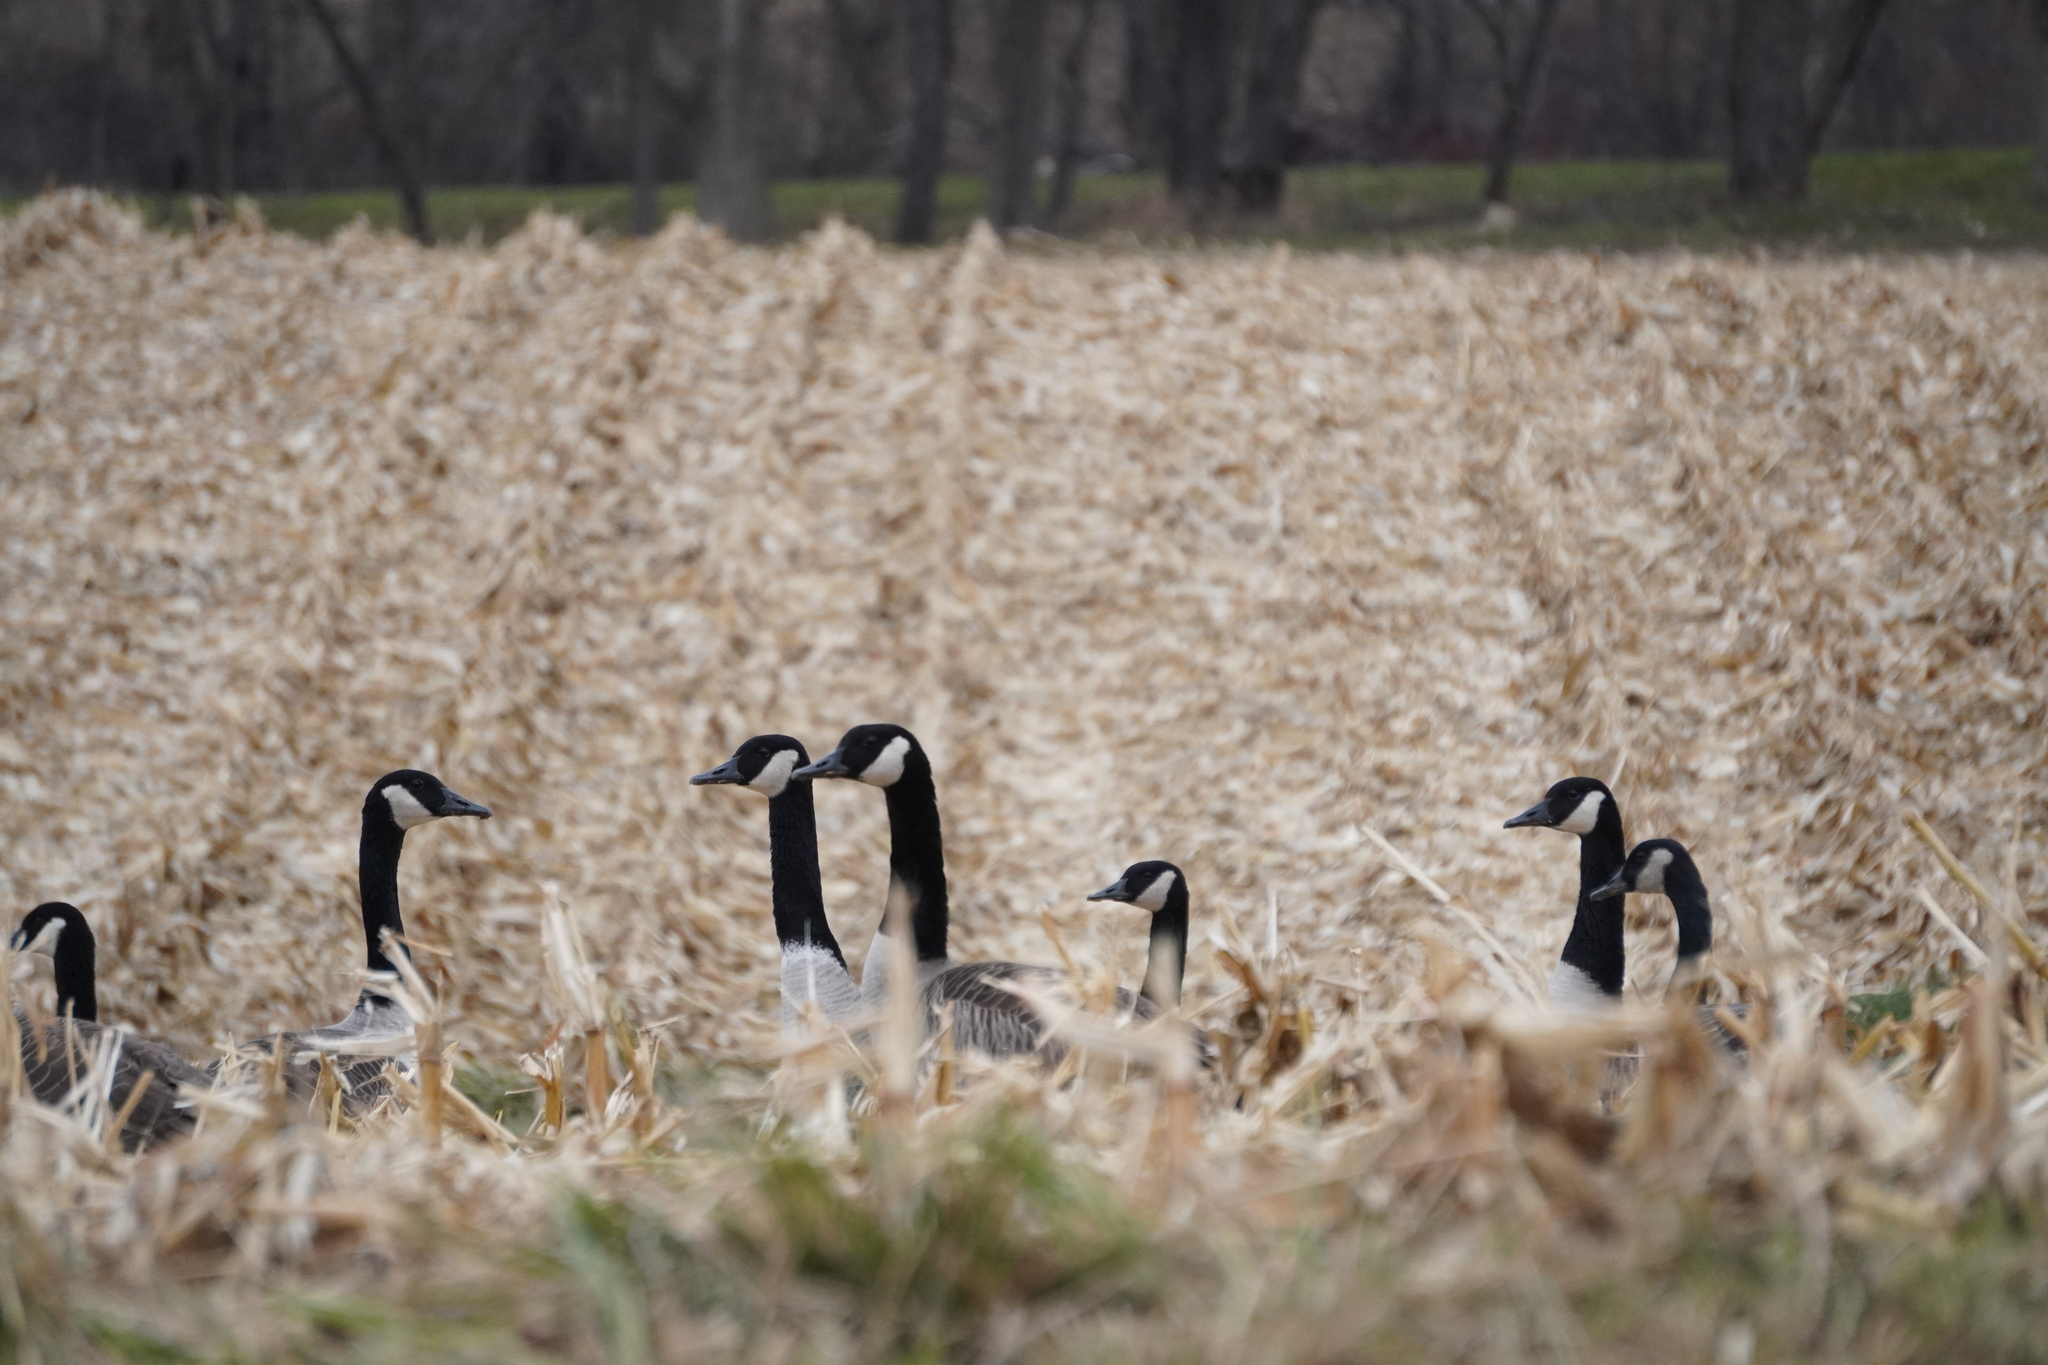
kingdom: Animalia
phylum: Chordata
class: Aves
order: Anseriformes
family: Anatidae
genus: Branta
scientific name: Branta canadensis
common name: Canada goose
